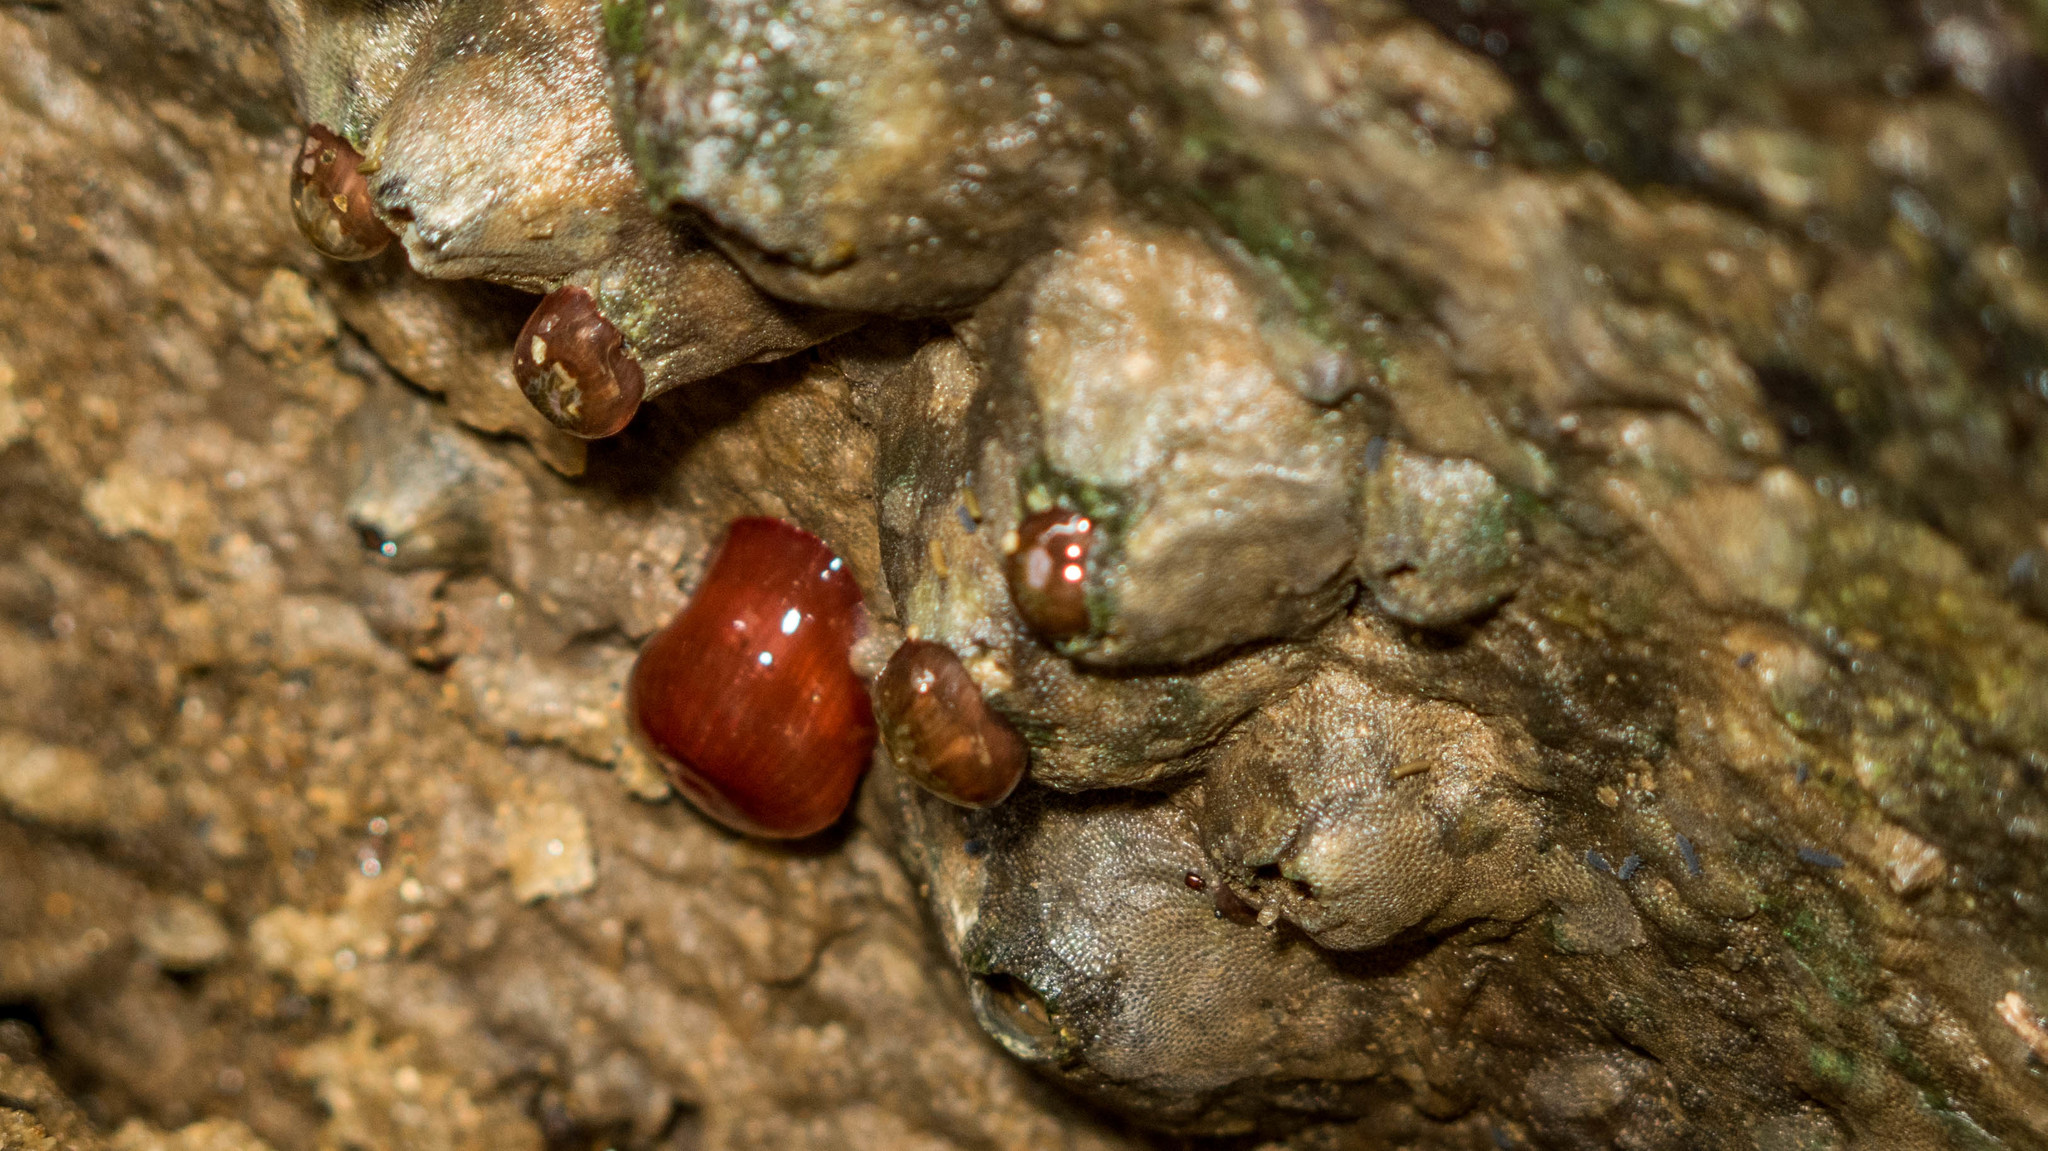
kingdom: Animalia
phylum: Cnidaria
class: Anthozoa
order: Actiniaria
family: Actiniidae
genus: Actinia
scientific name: Actinia bermudensis
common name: Maroon anemone
